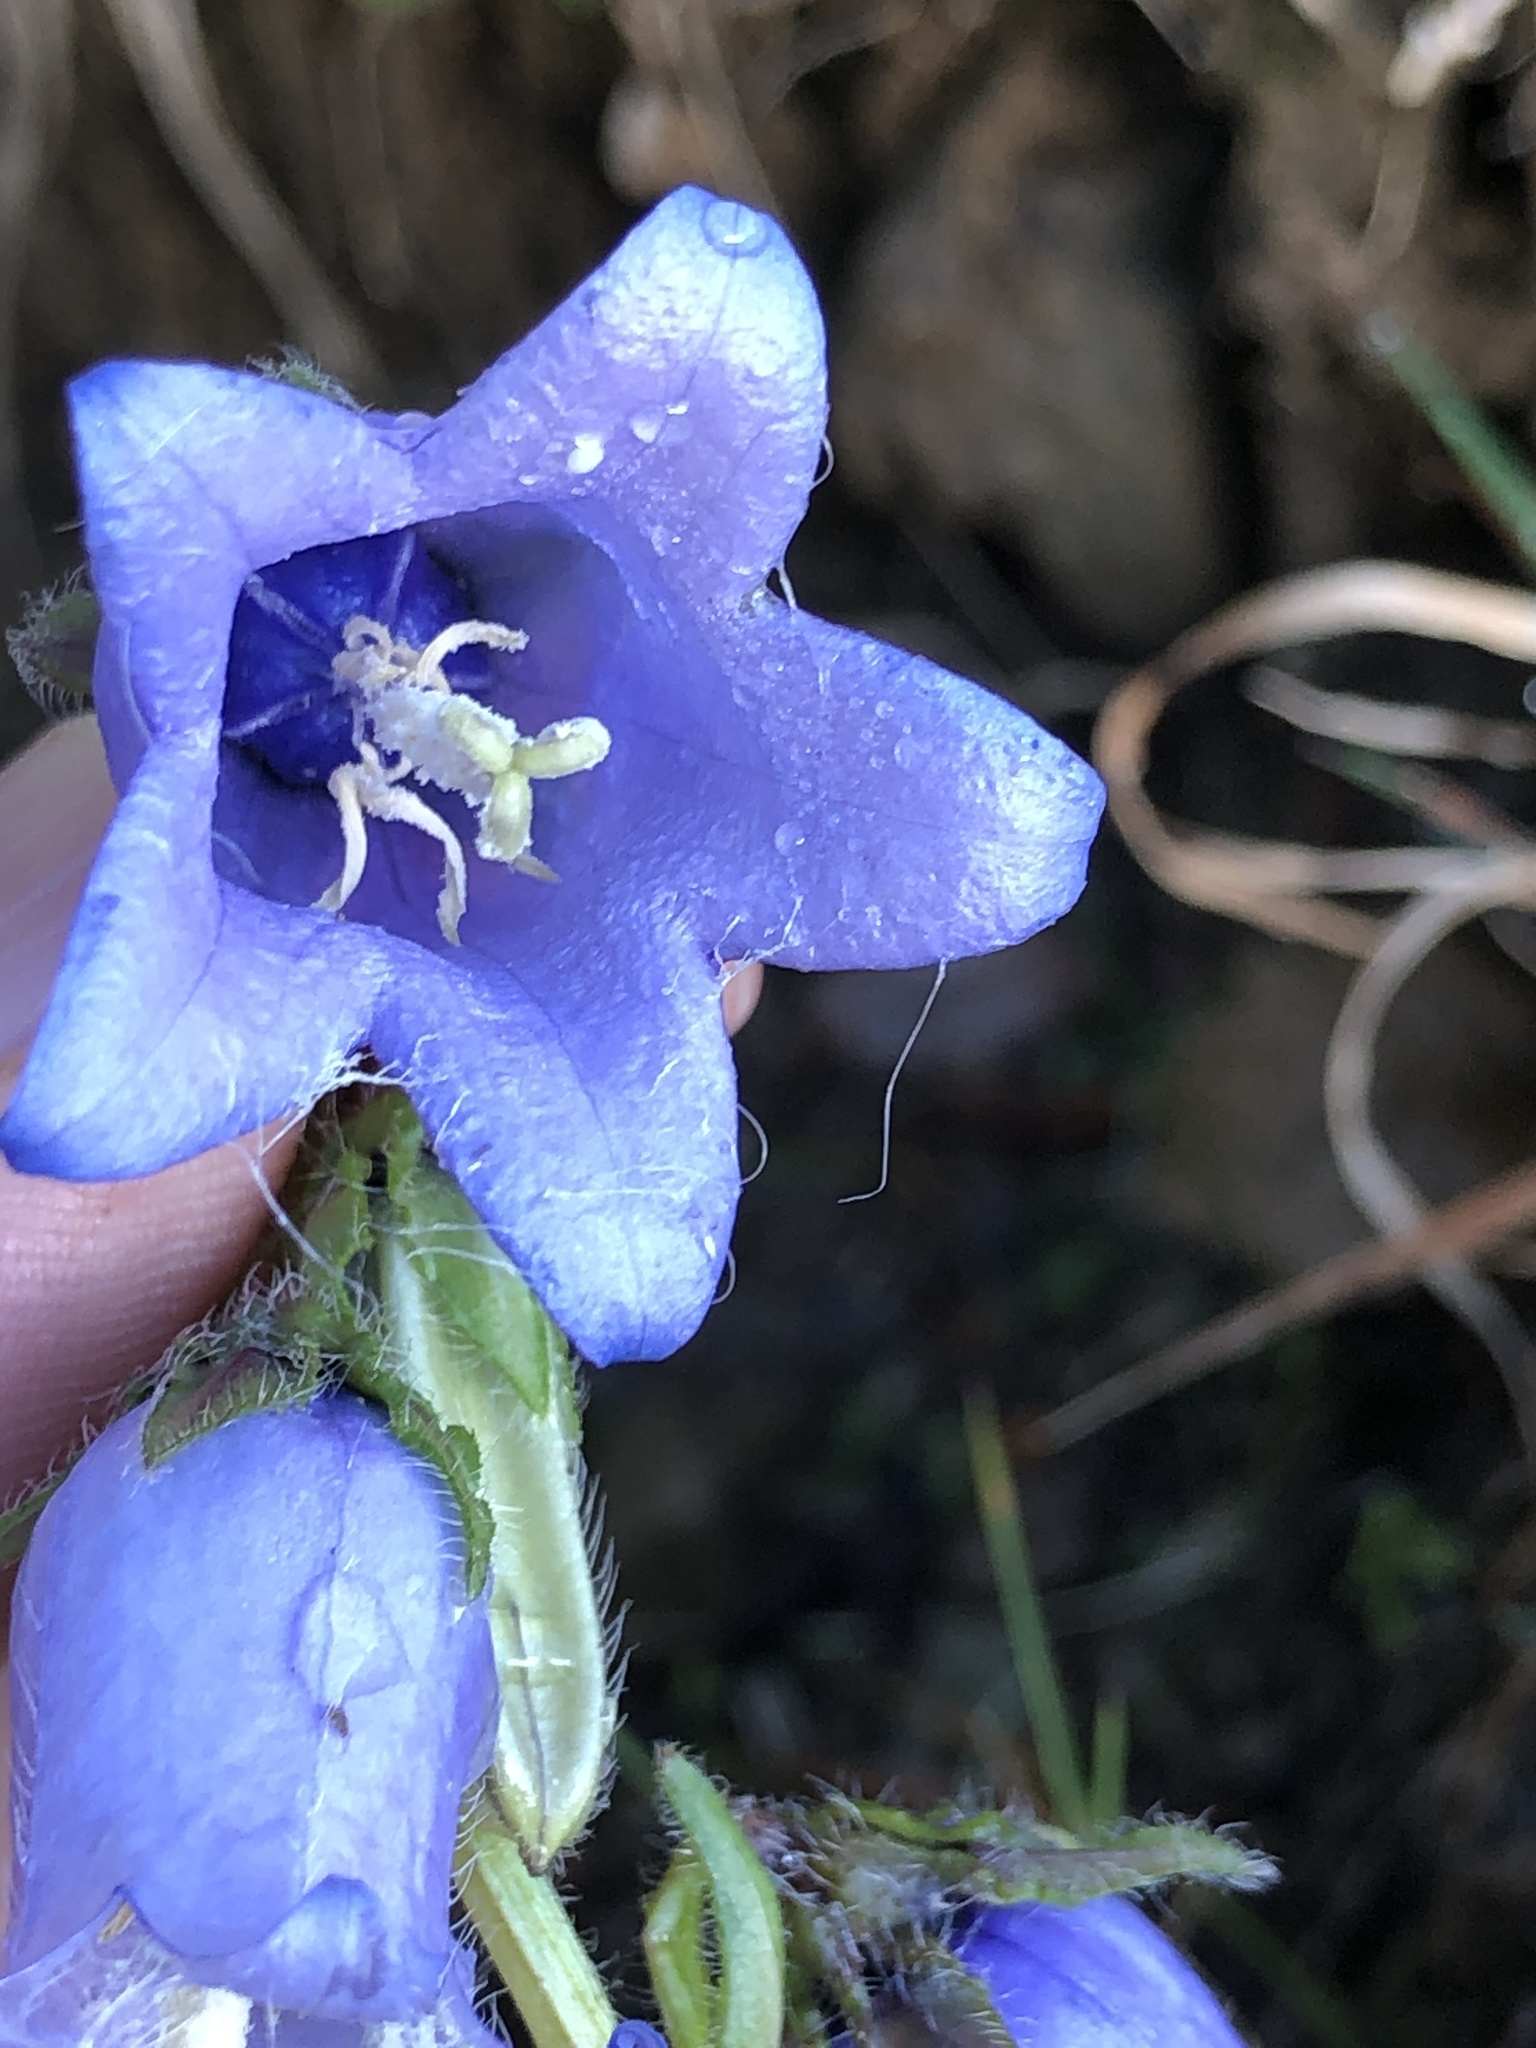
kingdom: Plantae
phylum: Tracheophyta
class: Magnoliopsida
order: Asterales
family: Campanulaceae
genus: Campanula
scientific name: Campanula barbata
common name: Bearded bellflower
